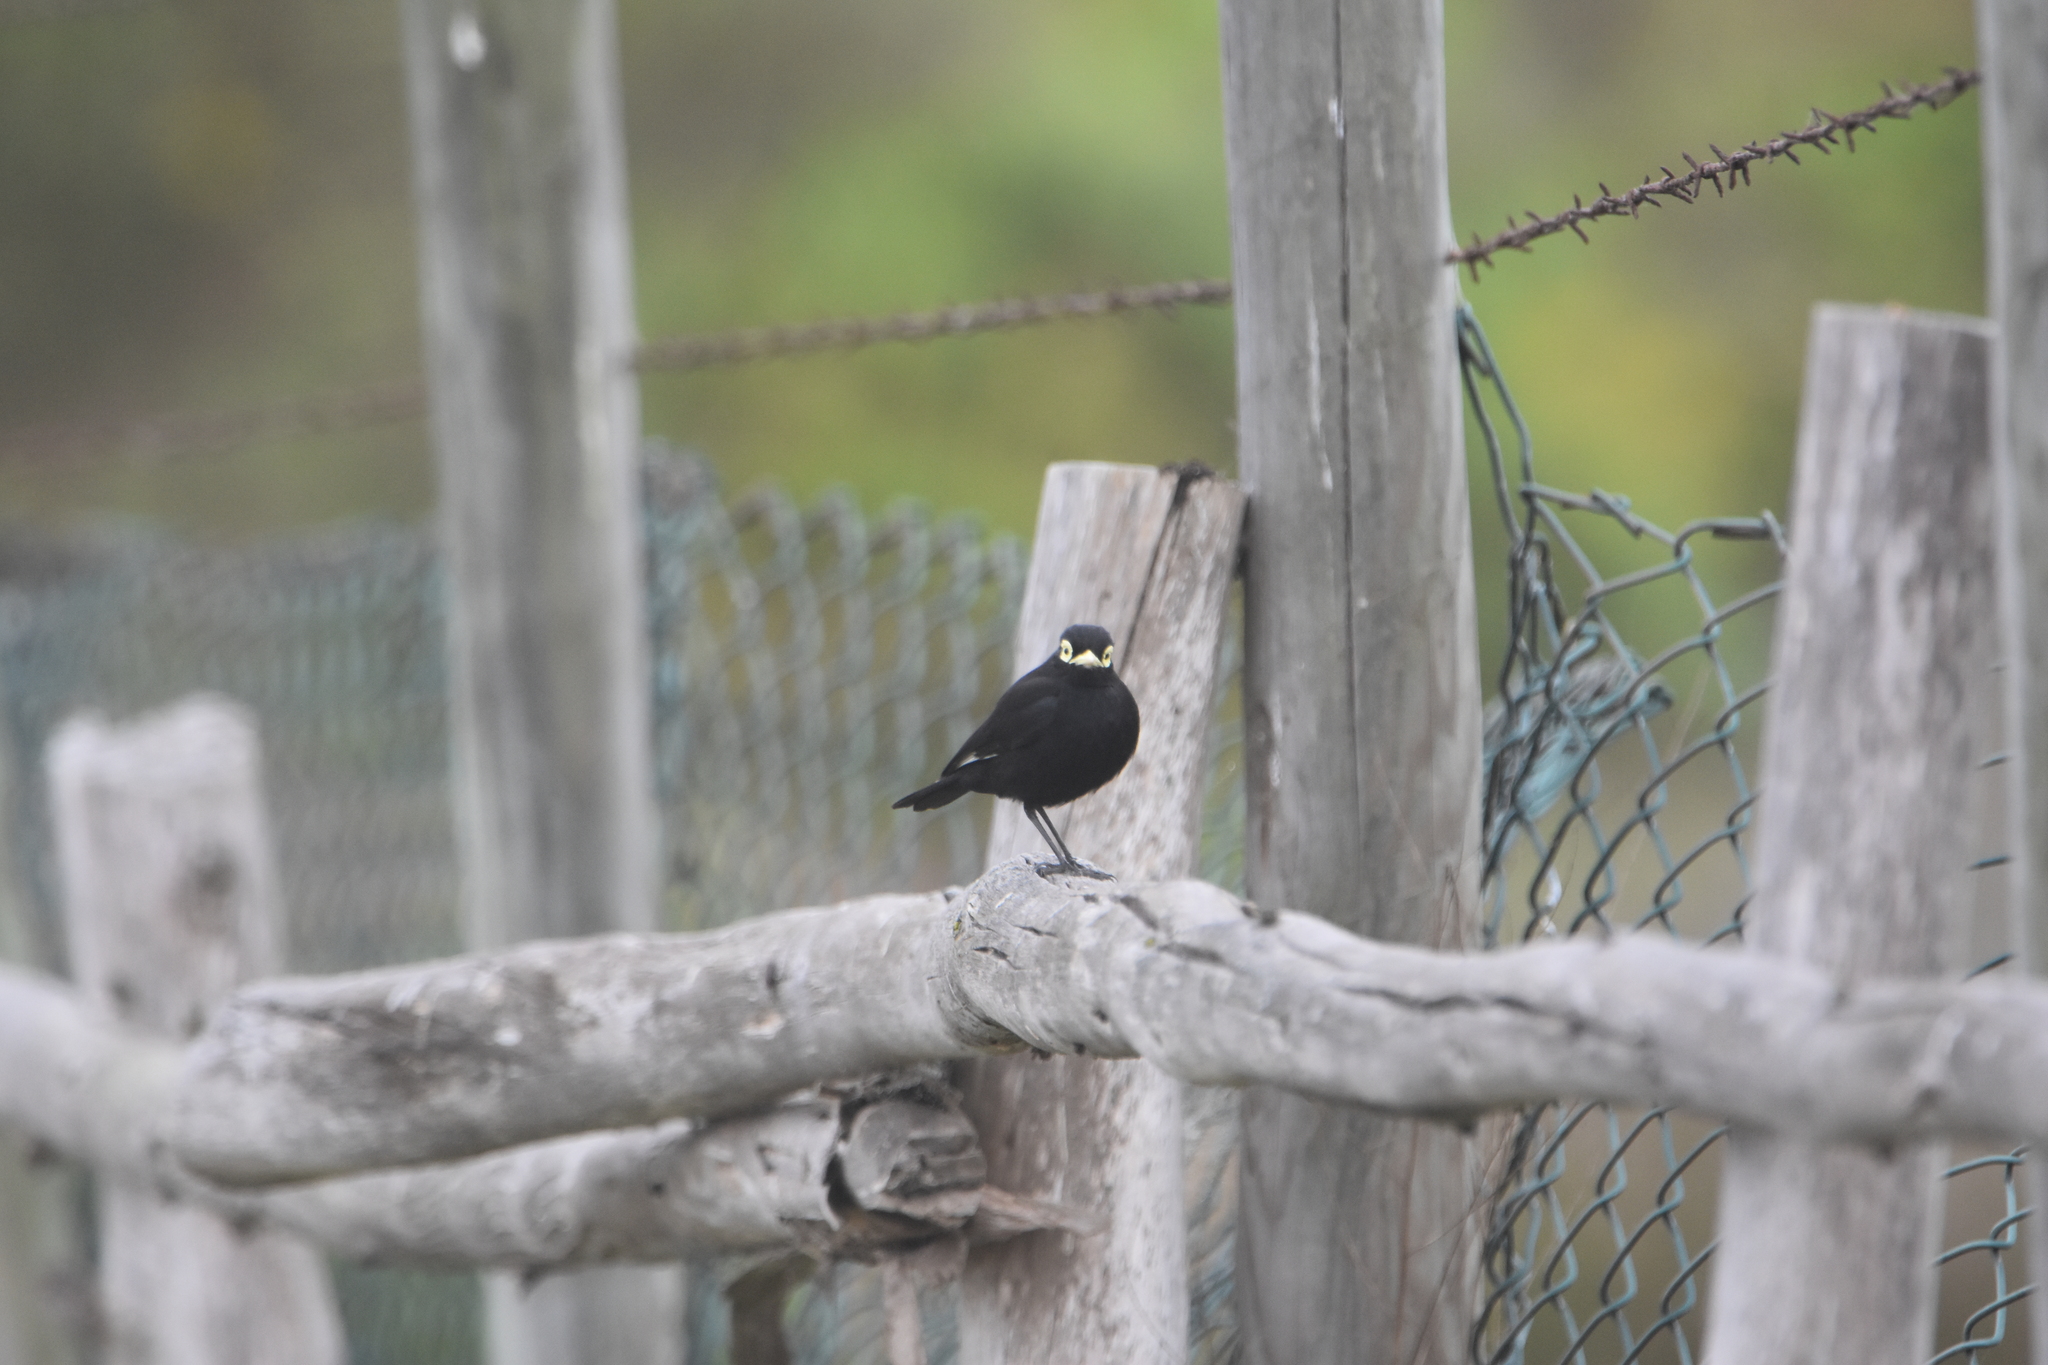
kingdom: Animalia
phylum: Chordata
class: Aves
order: Passeriformes
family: Tyrannidae
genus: Hymenops
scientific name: Hymenops perspicillatus
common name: Spectacled tyrant
